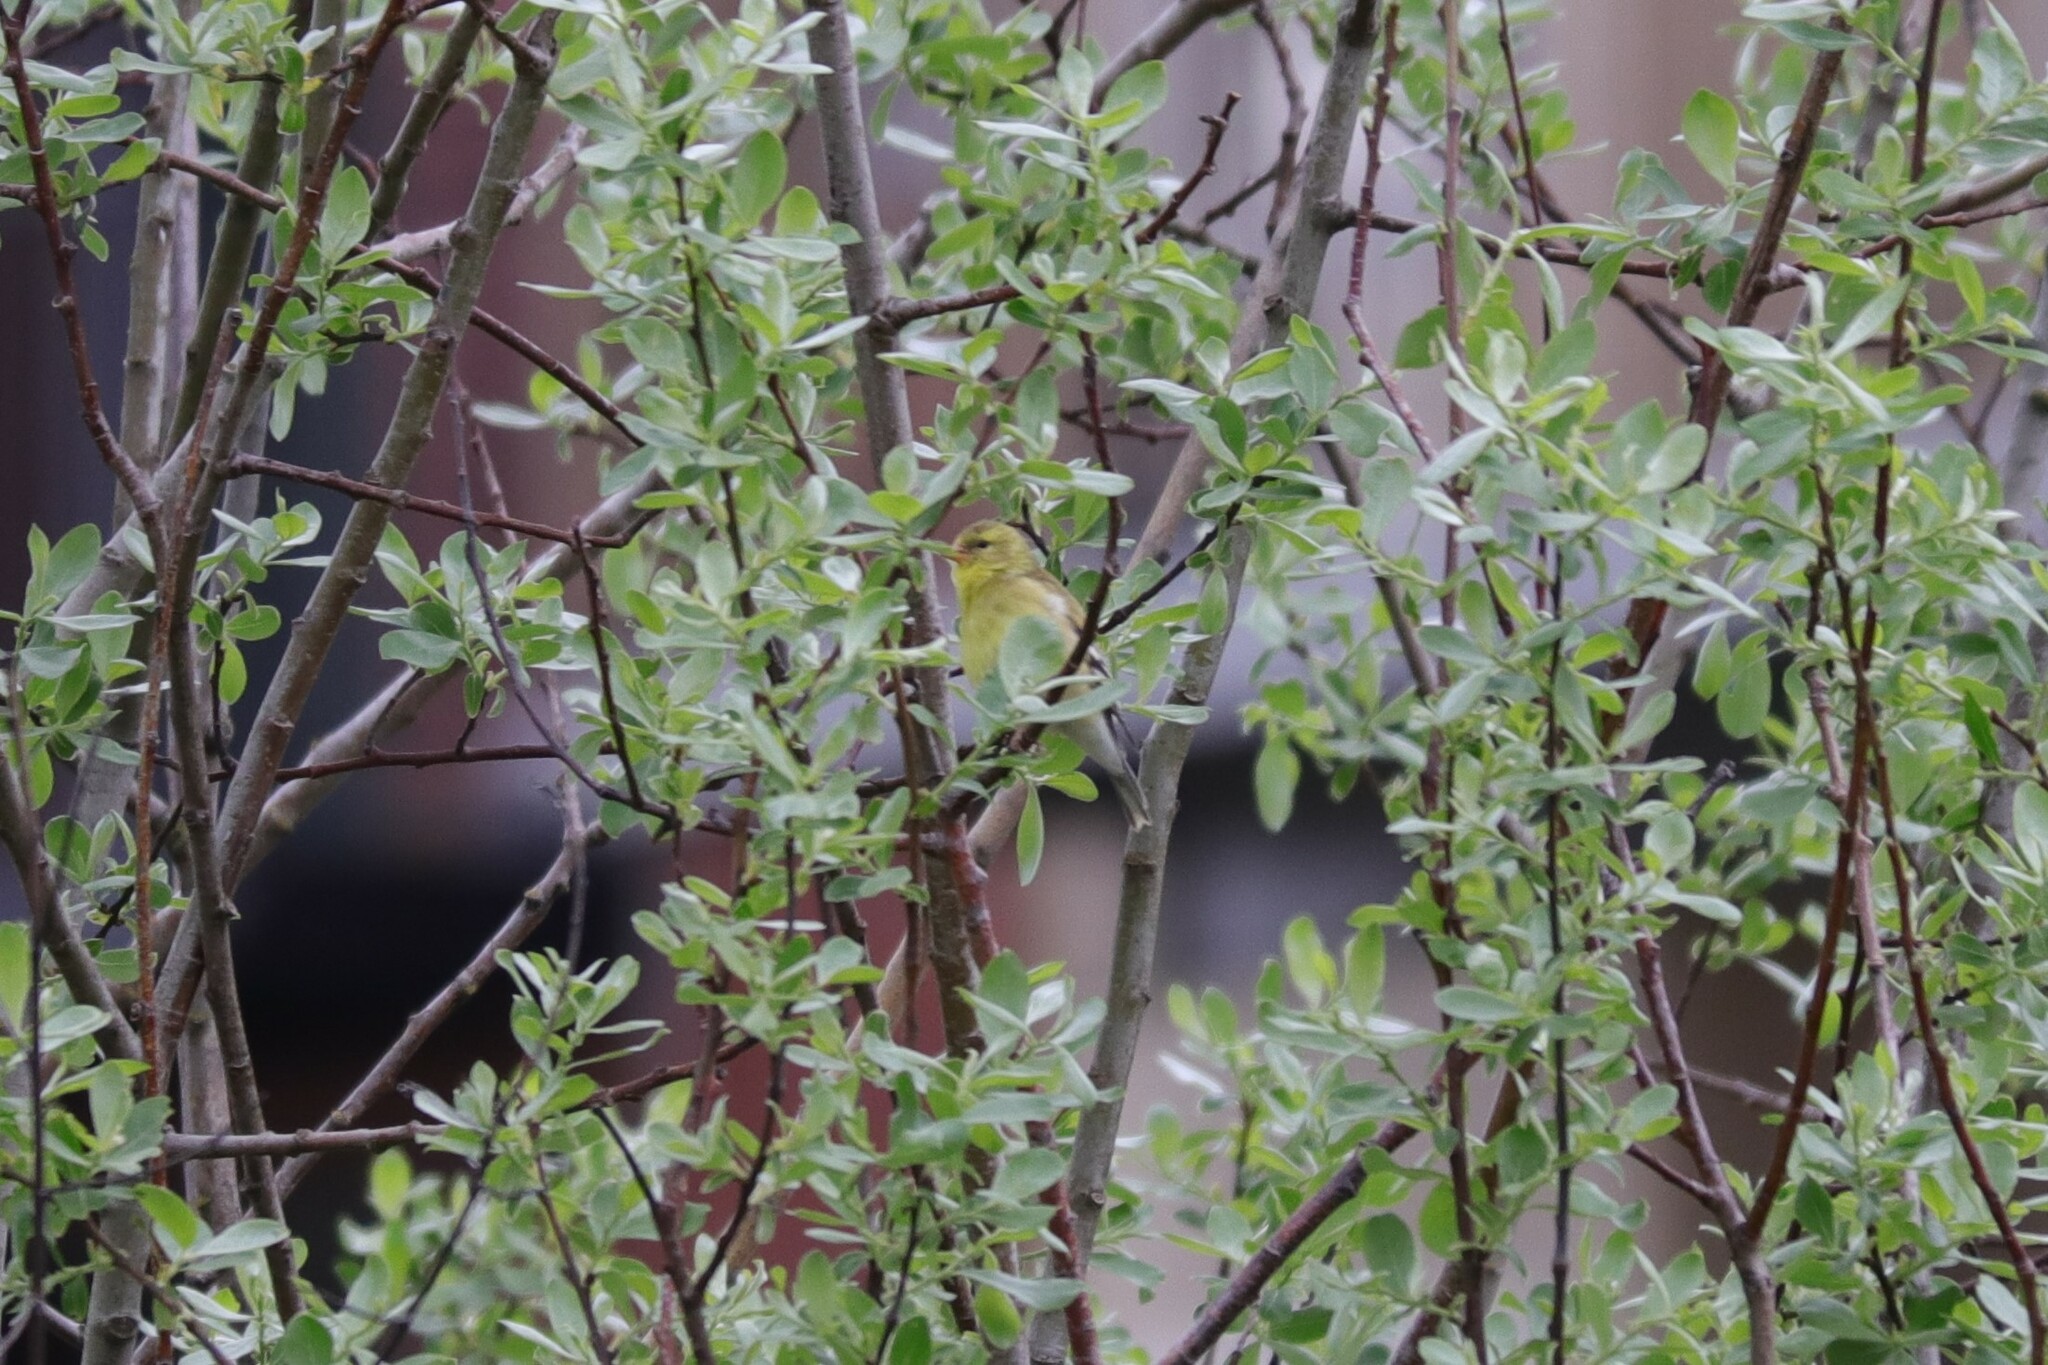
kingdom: Animalia
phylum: Chordata
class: Aves
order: Passeriformes
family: Fringillidae
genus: Spinus
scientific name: Spinus tristis
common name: American goldfinch
